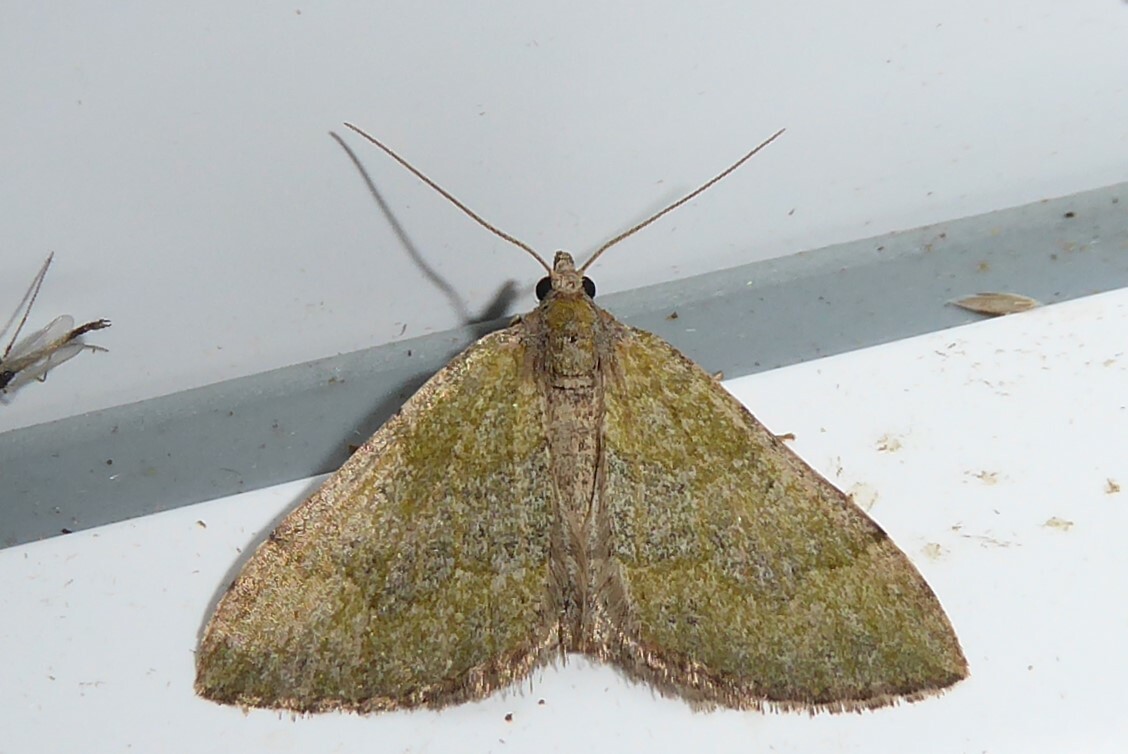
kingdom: Animalia
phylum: Arthropoda
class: Insecta
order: Lepidoptera
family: Geometridae
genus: Epyaxa
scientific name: Epyaxa rosearia
